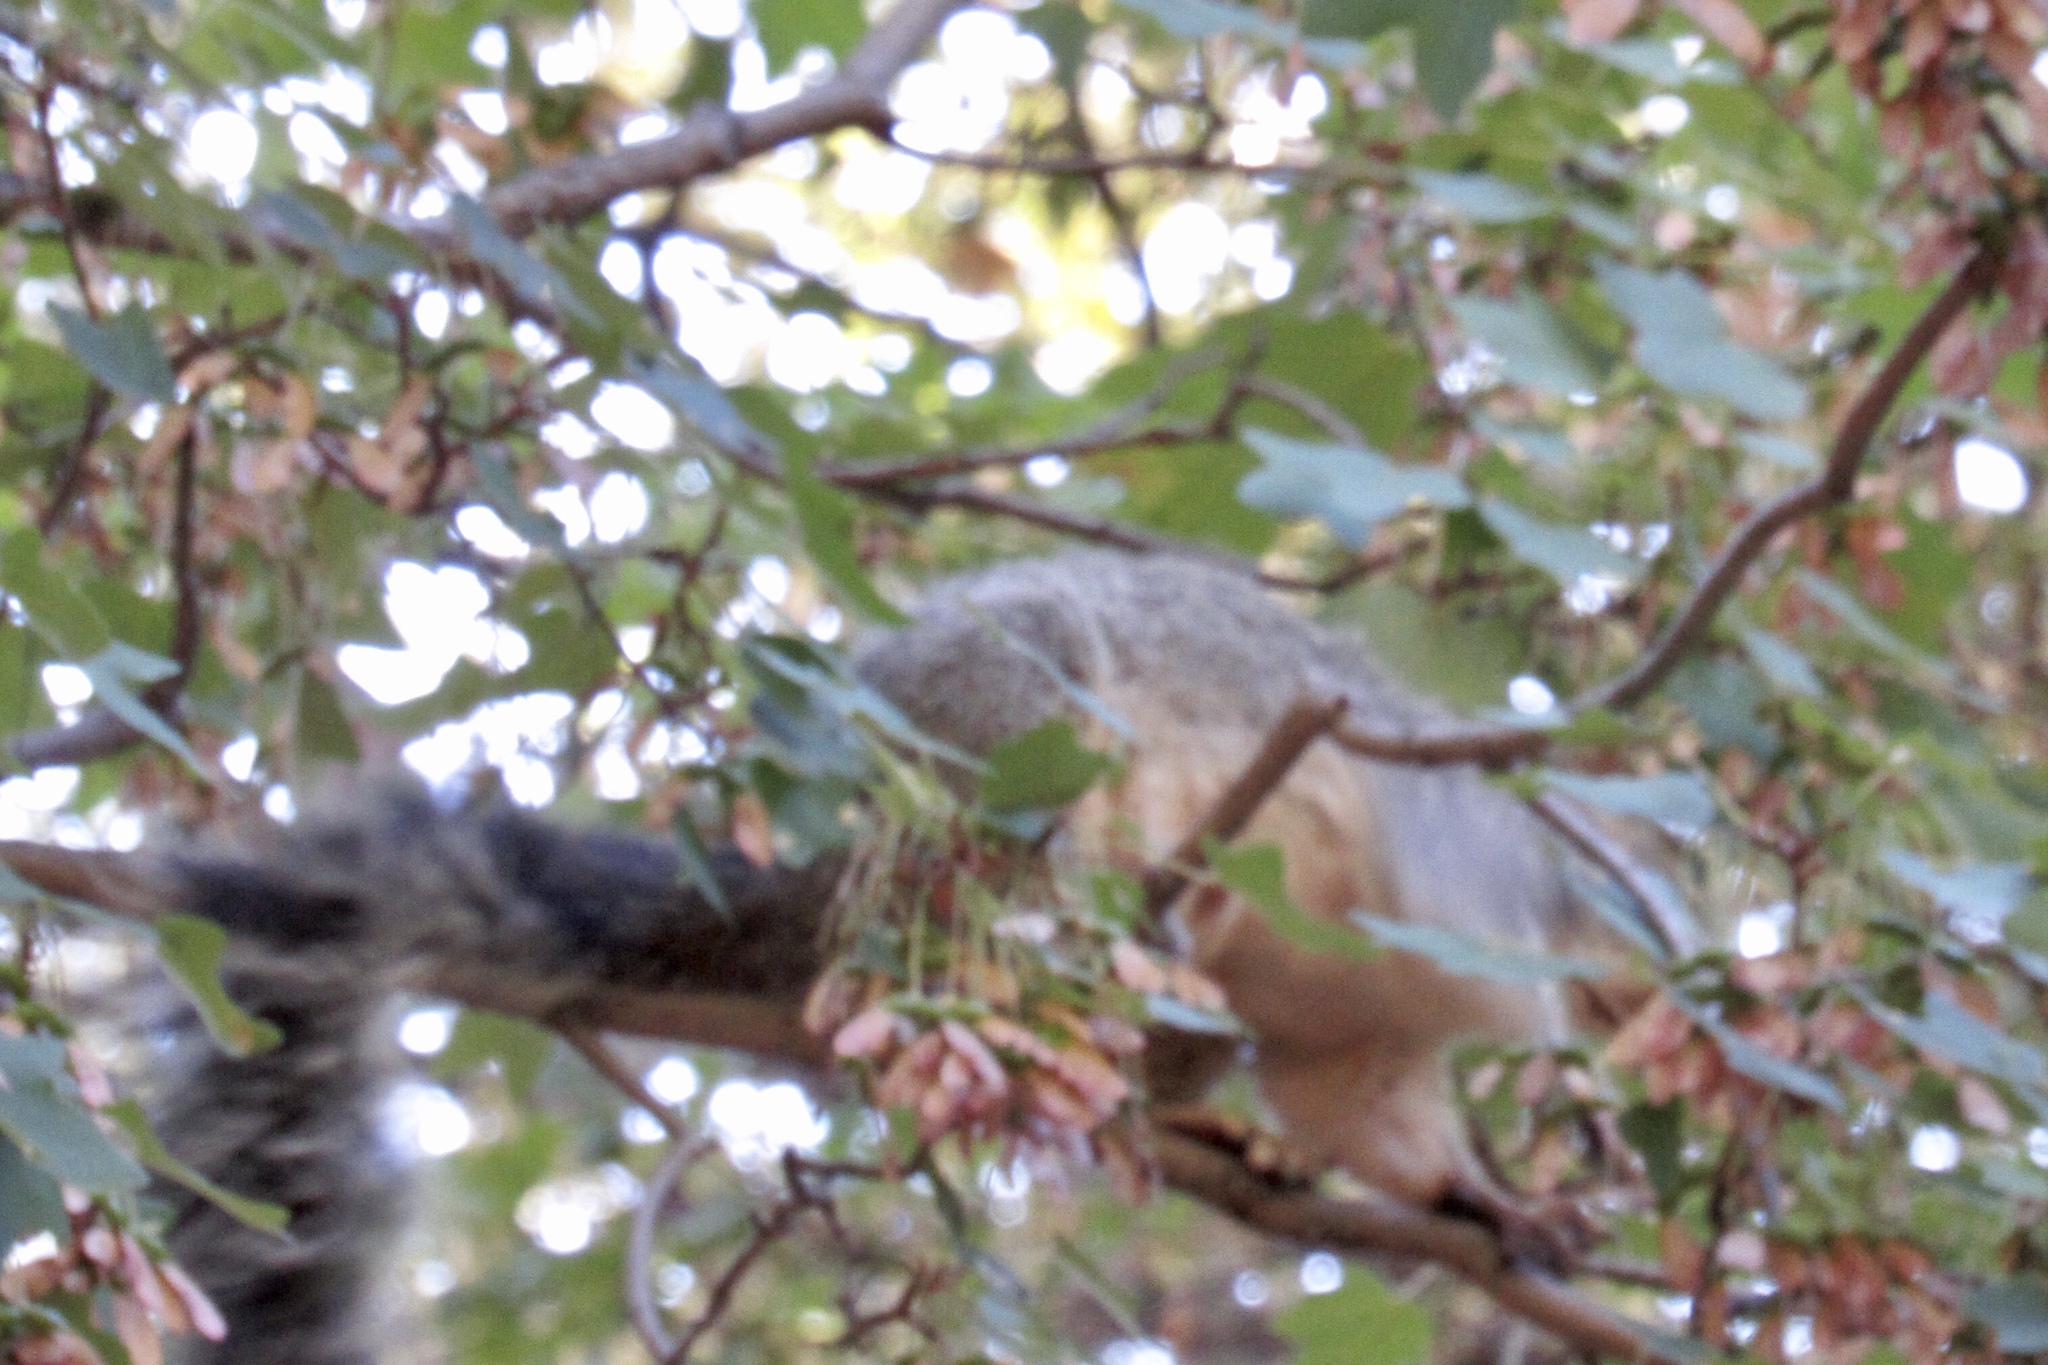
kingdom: Animalia
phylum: Chordata
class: Mammalia
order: Rodentia
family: Sciuridae
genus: Sciurus
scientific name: Sciurus arizonensis
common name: Arizona gray squirrel
